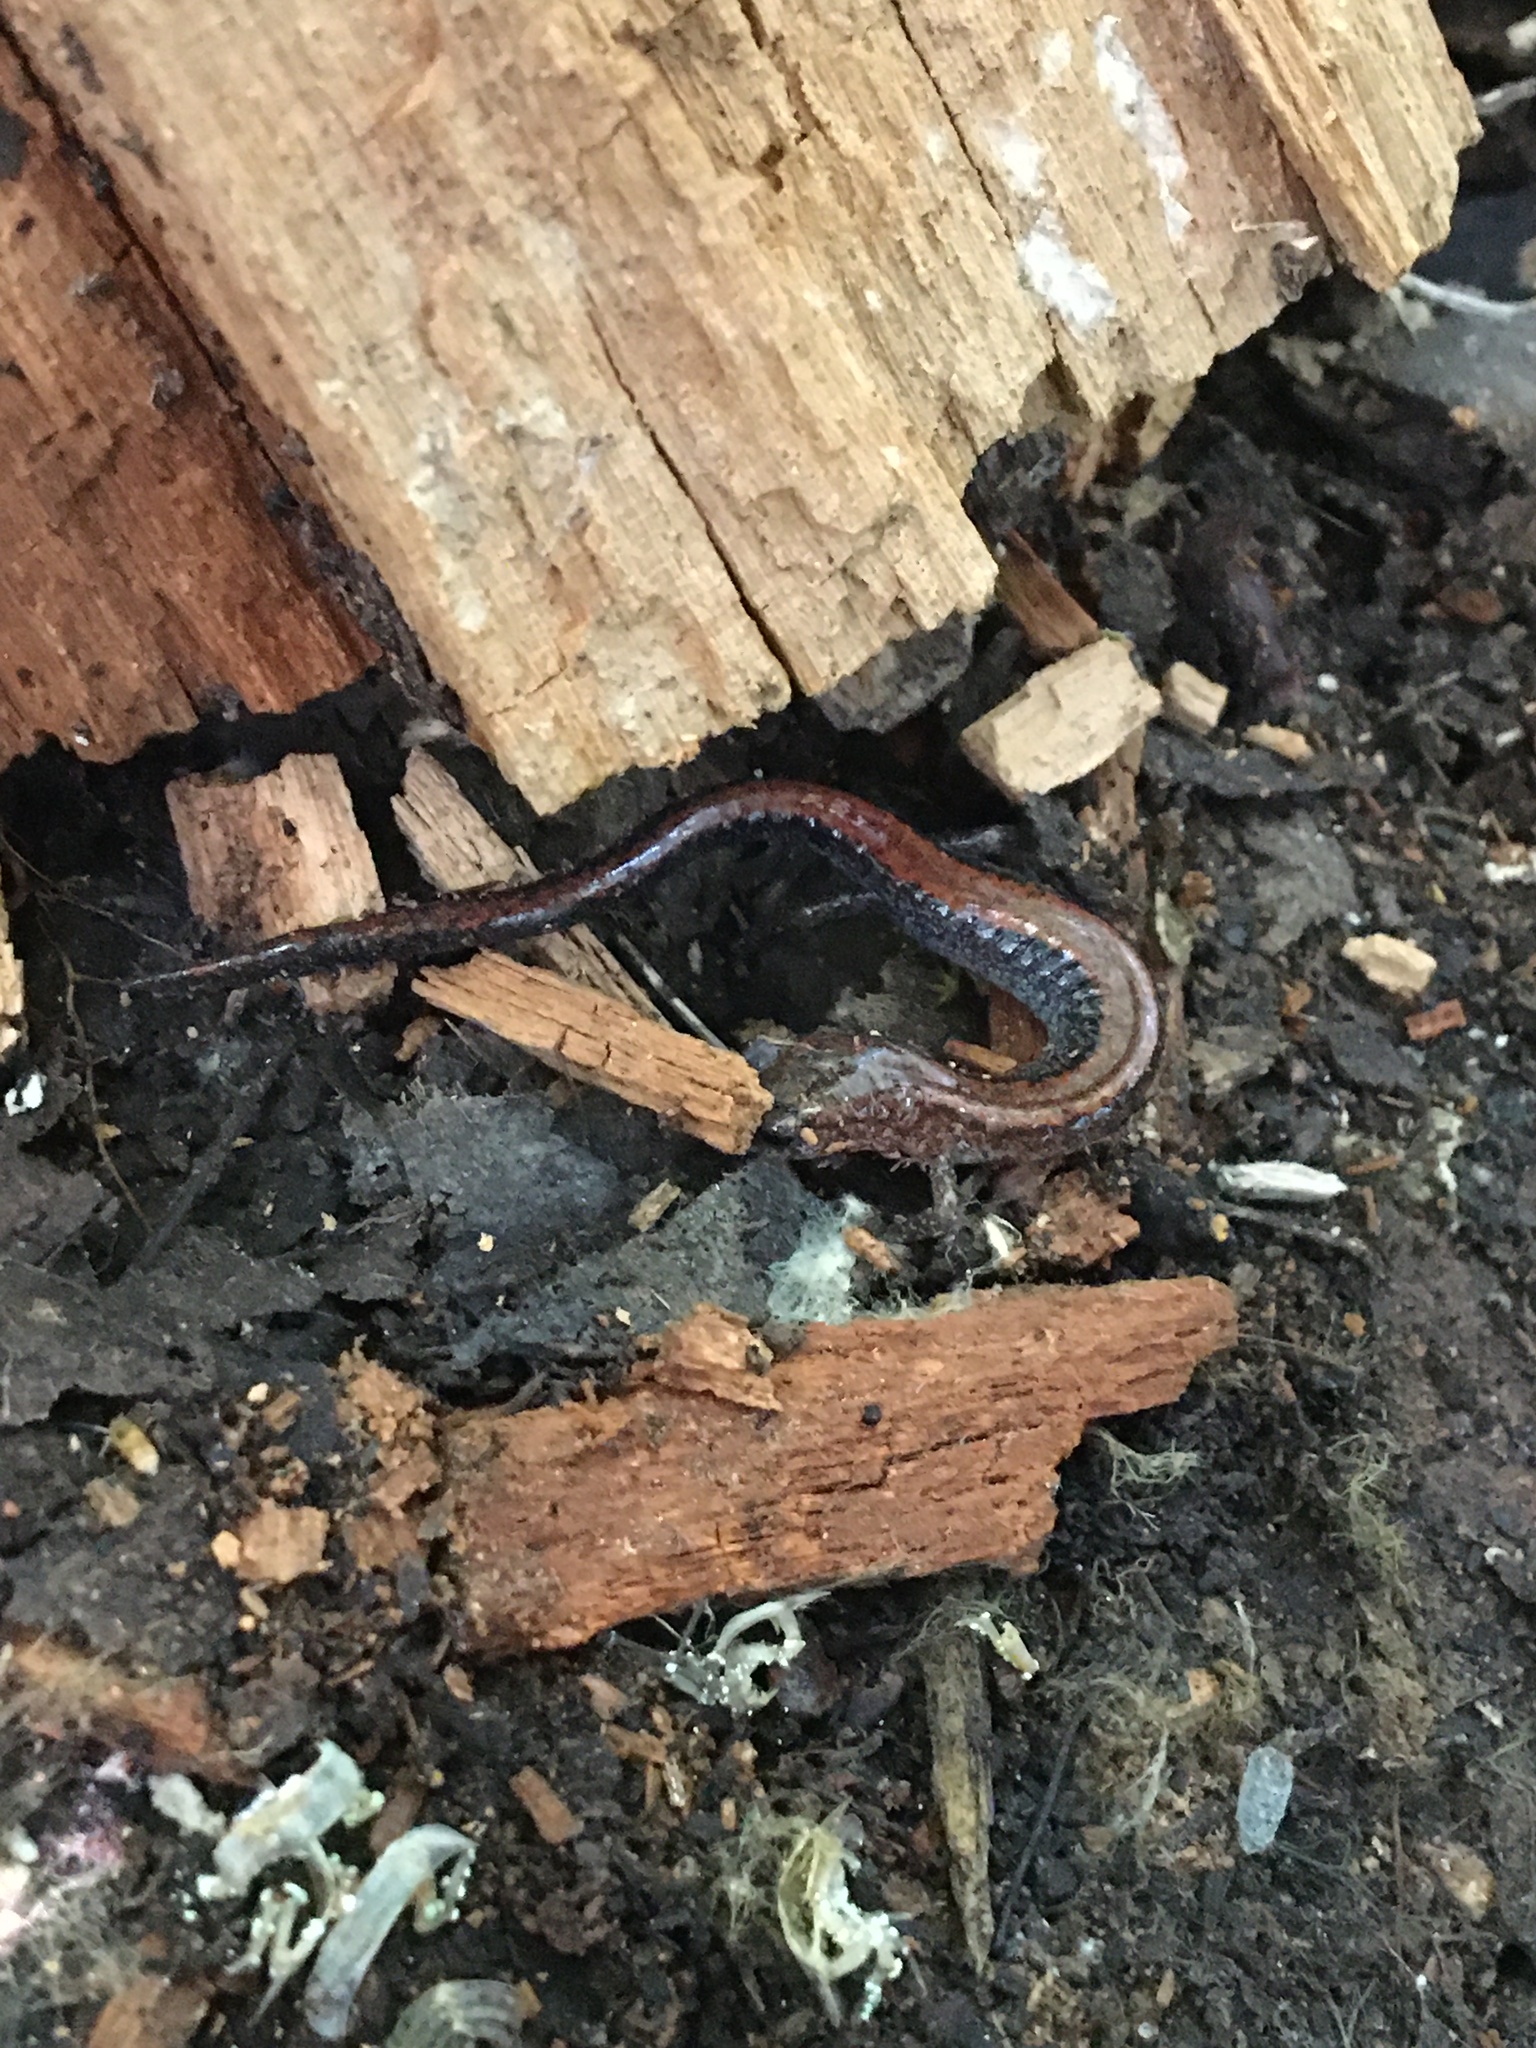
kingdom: Animalia
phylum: Chordata
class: Amphibia
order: Caudata
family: Plethodontidae
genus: Plethodon
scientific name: Plethodon cinereus
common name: Redback salamander
